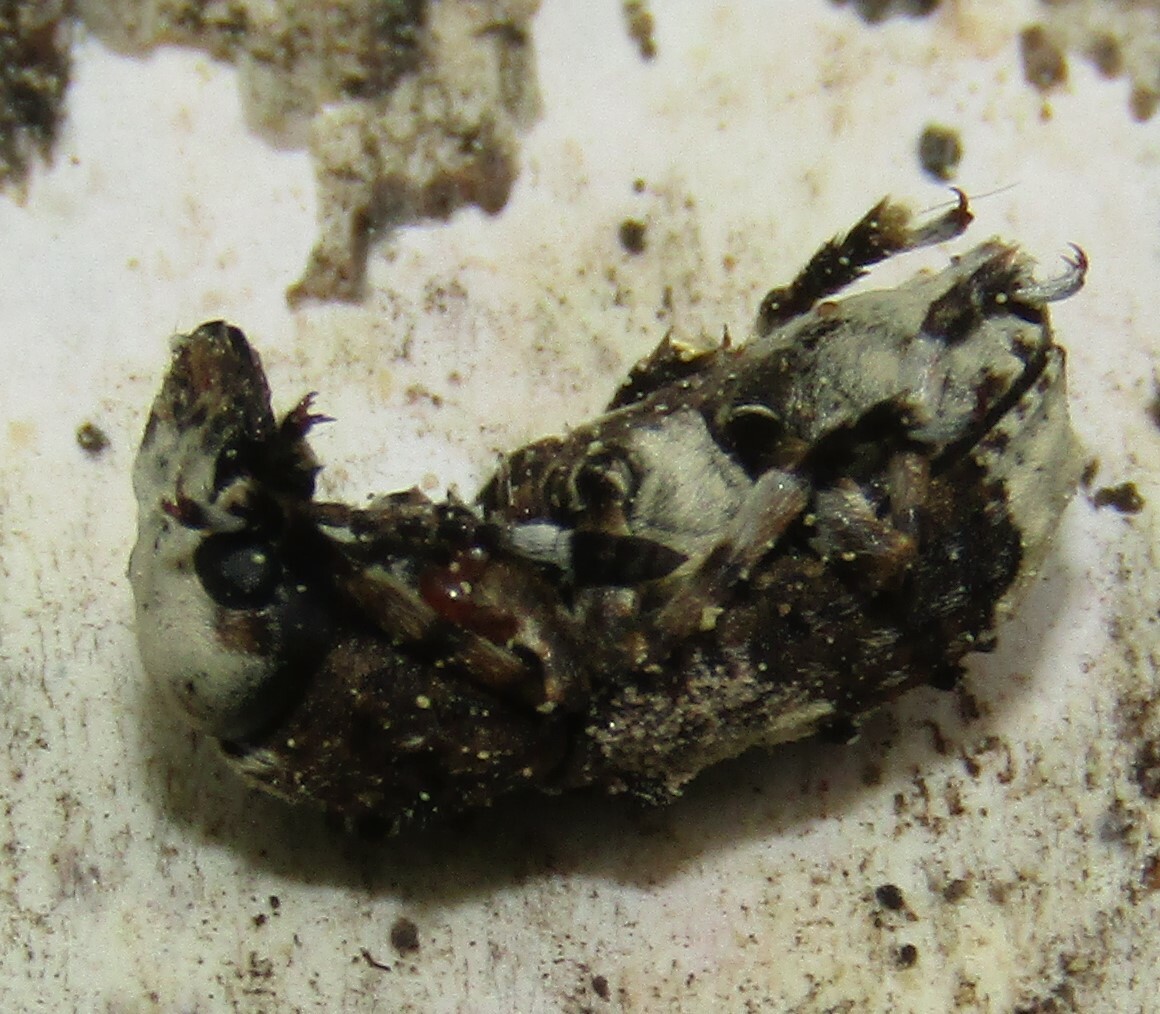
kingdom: Animalia
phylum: Arthropoda
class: Insecta
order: Coleoptera
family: Anthribidae
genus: Platystomos
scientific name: Platystomos albinus
